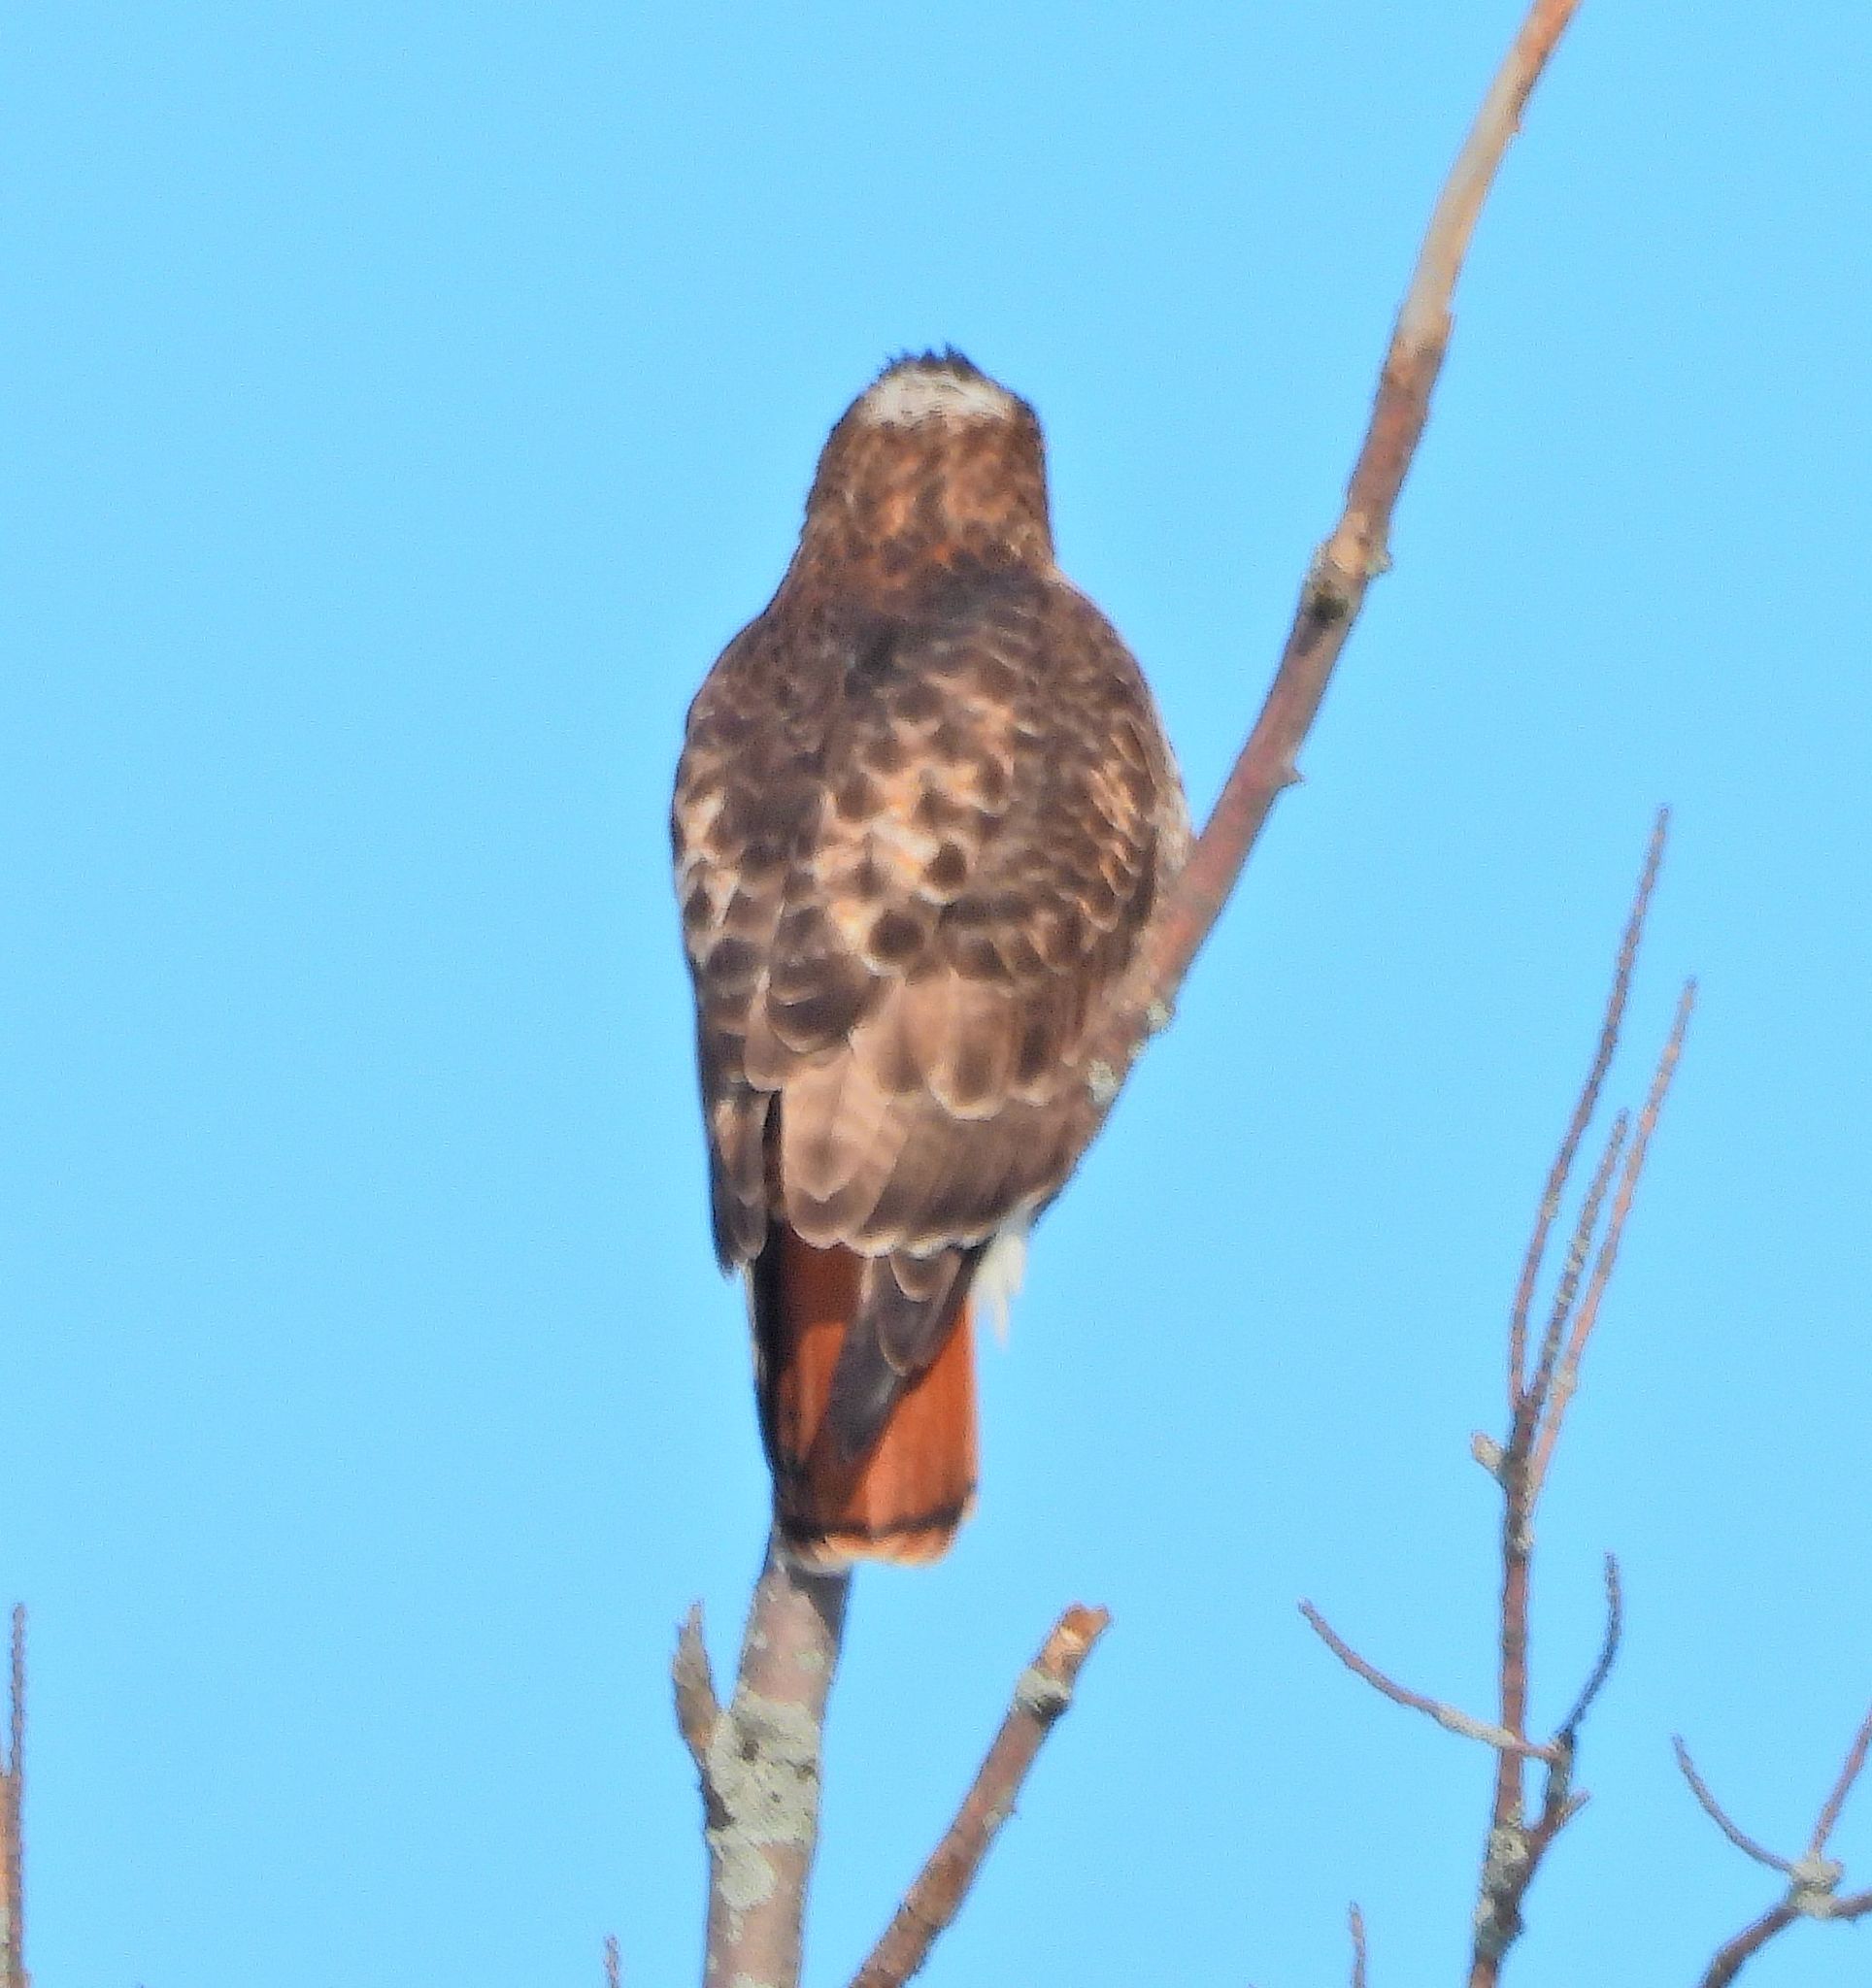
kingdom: Animalia
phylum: Chordata
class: Aves
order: Accipitriformes
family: Accipitridae
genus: Buteo
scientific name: Buteo jamaicensis
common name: Red-tailed hawk
